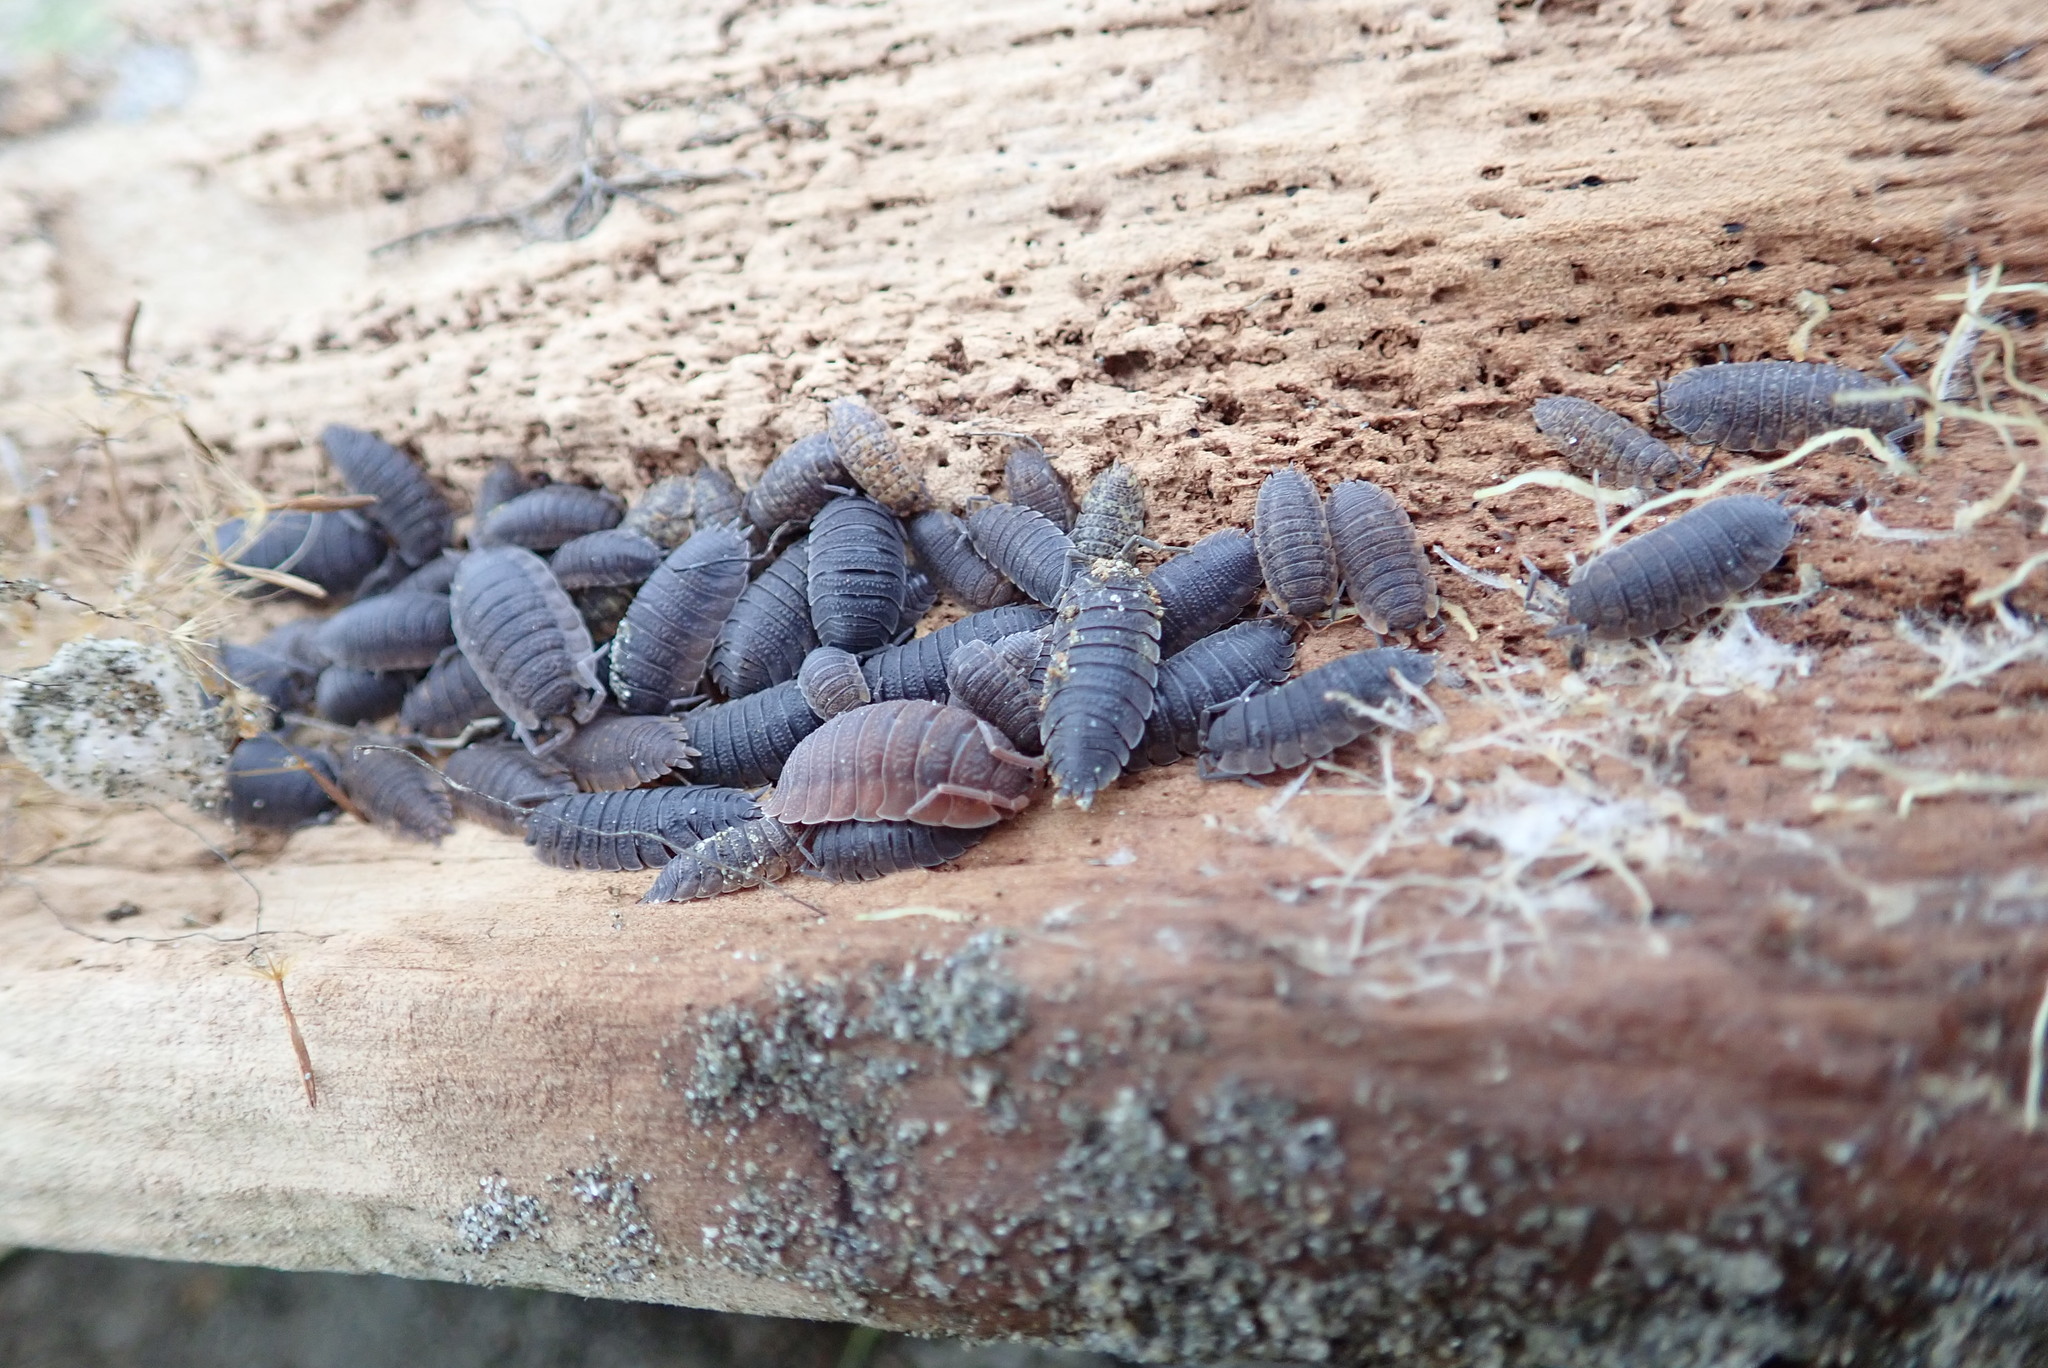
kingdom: Animalia
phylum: Arthropoda
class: Malacostraca
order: Isopoda
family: Porcellionidae
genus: Porcellio
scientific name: Porcellio scaber
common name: Common rough woodlouse
